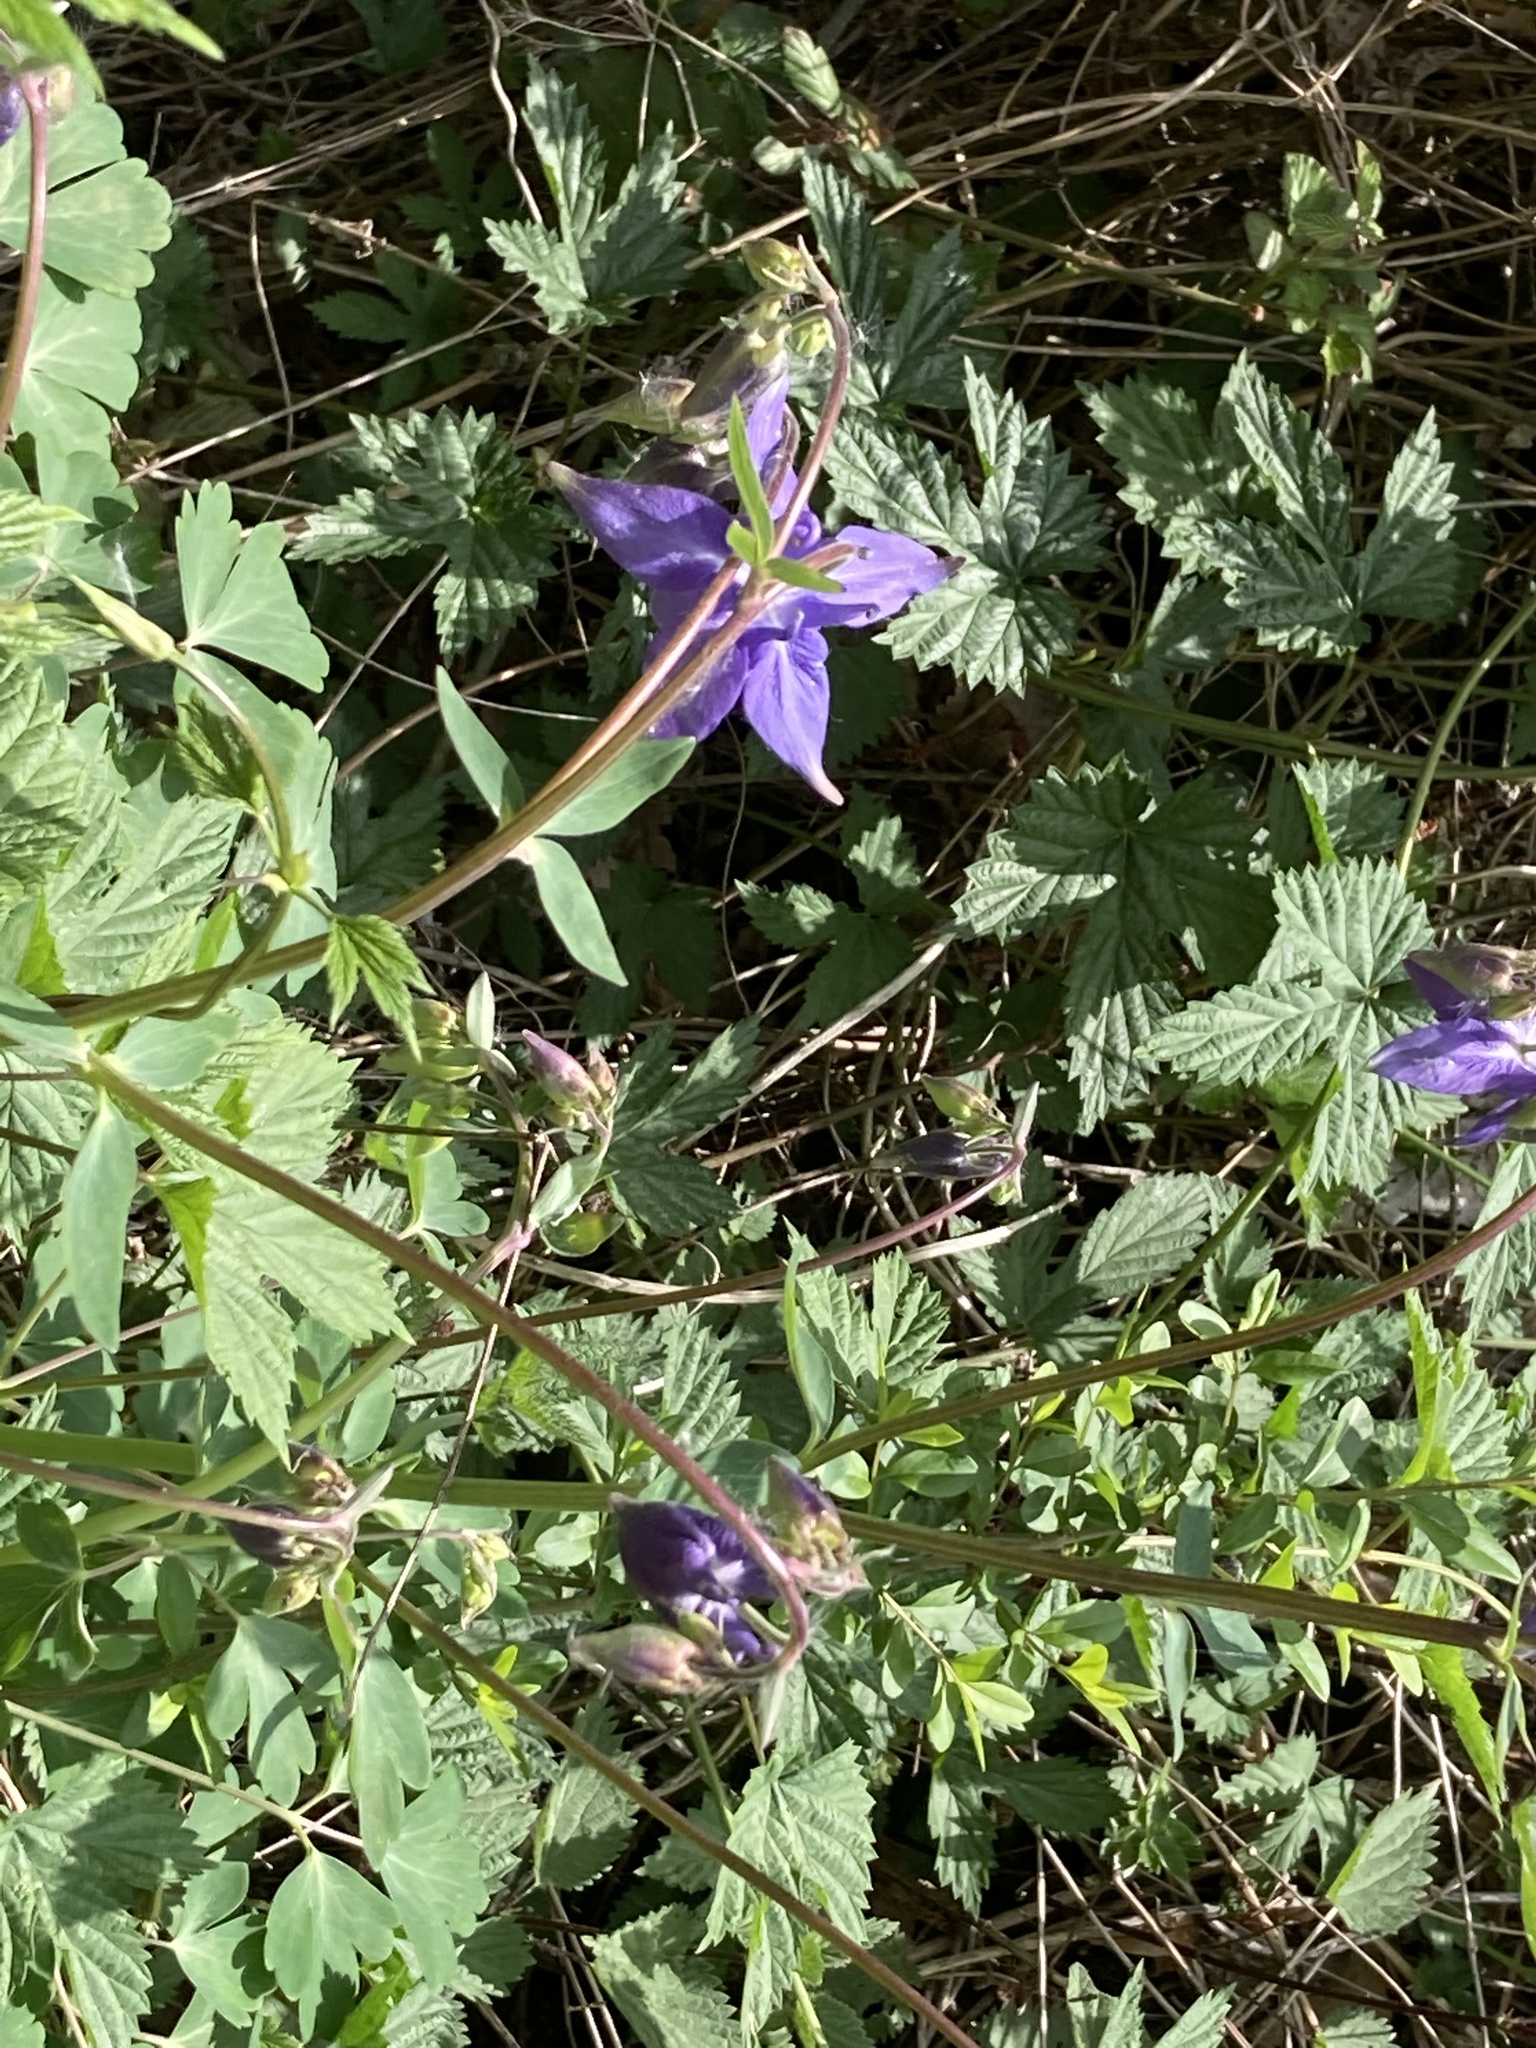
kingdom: Plantae
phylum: Tracheophyta
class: Magnoliopsida
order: Ranunculales
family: Ranunculaceae
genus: Aquilegia
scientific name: Aquilegia vulgaris
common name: Columbine
